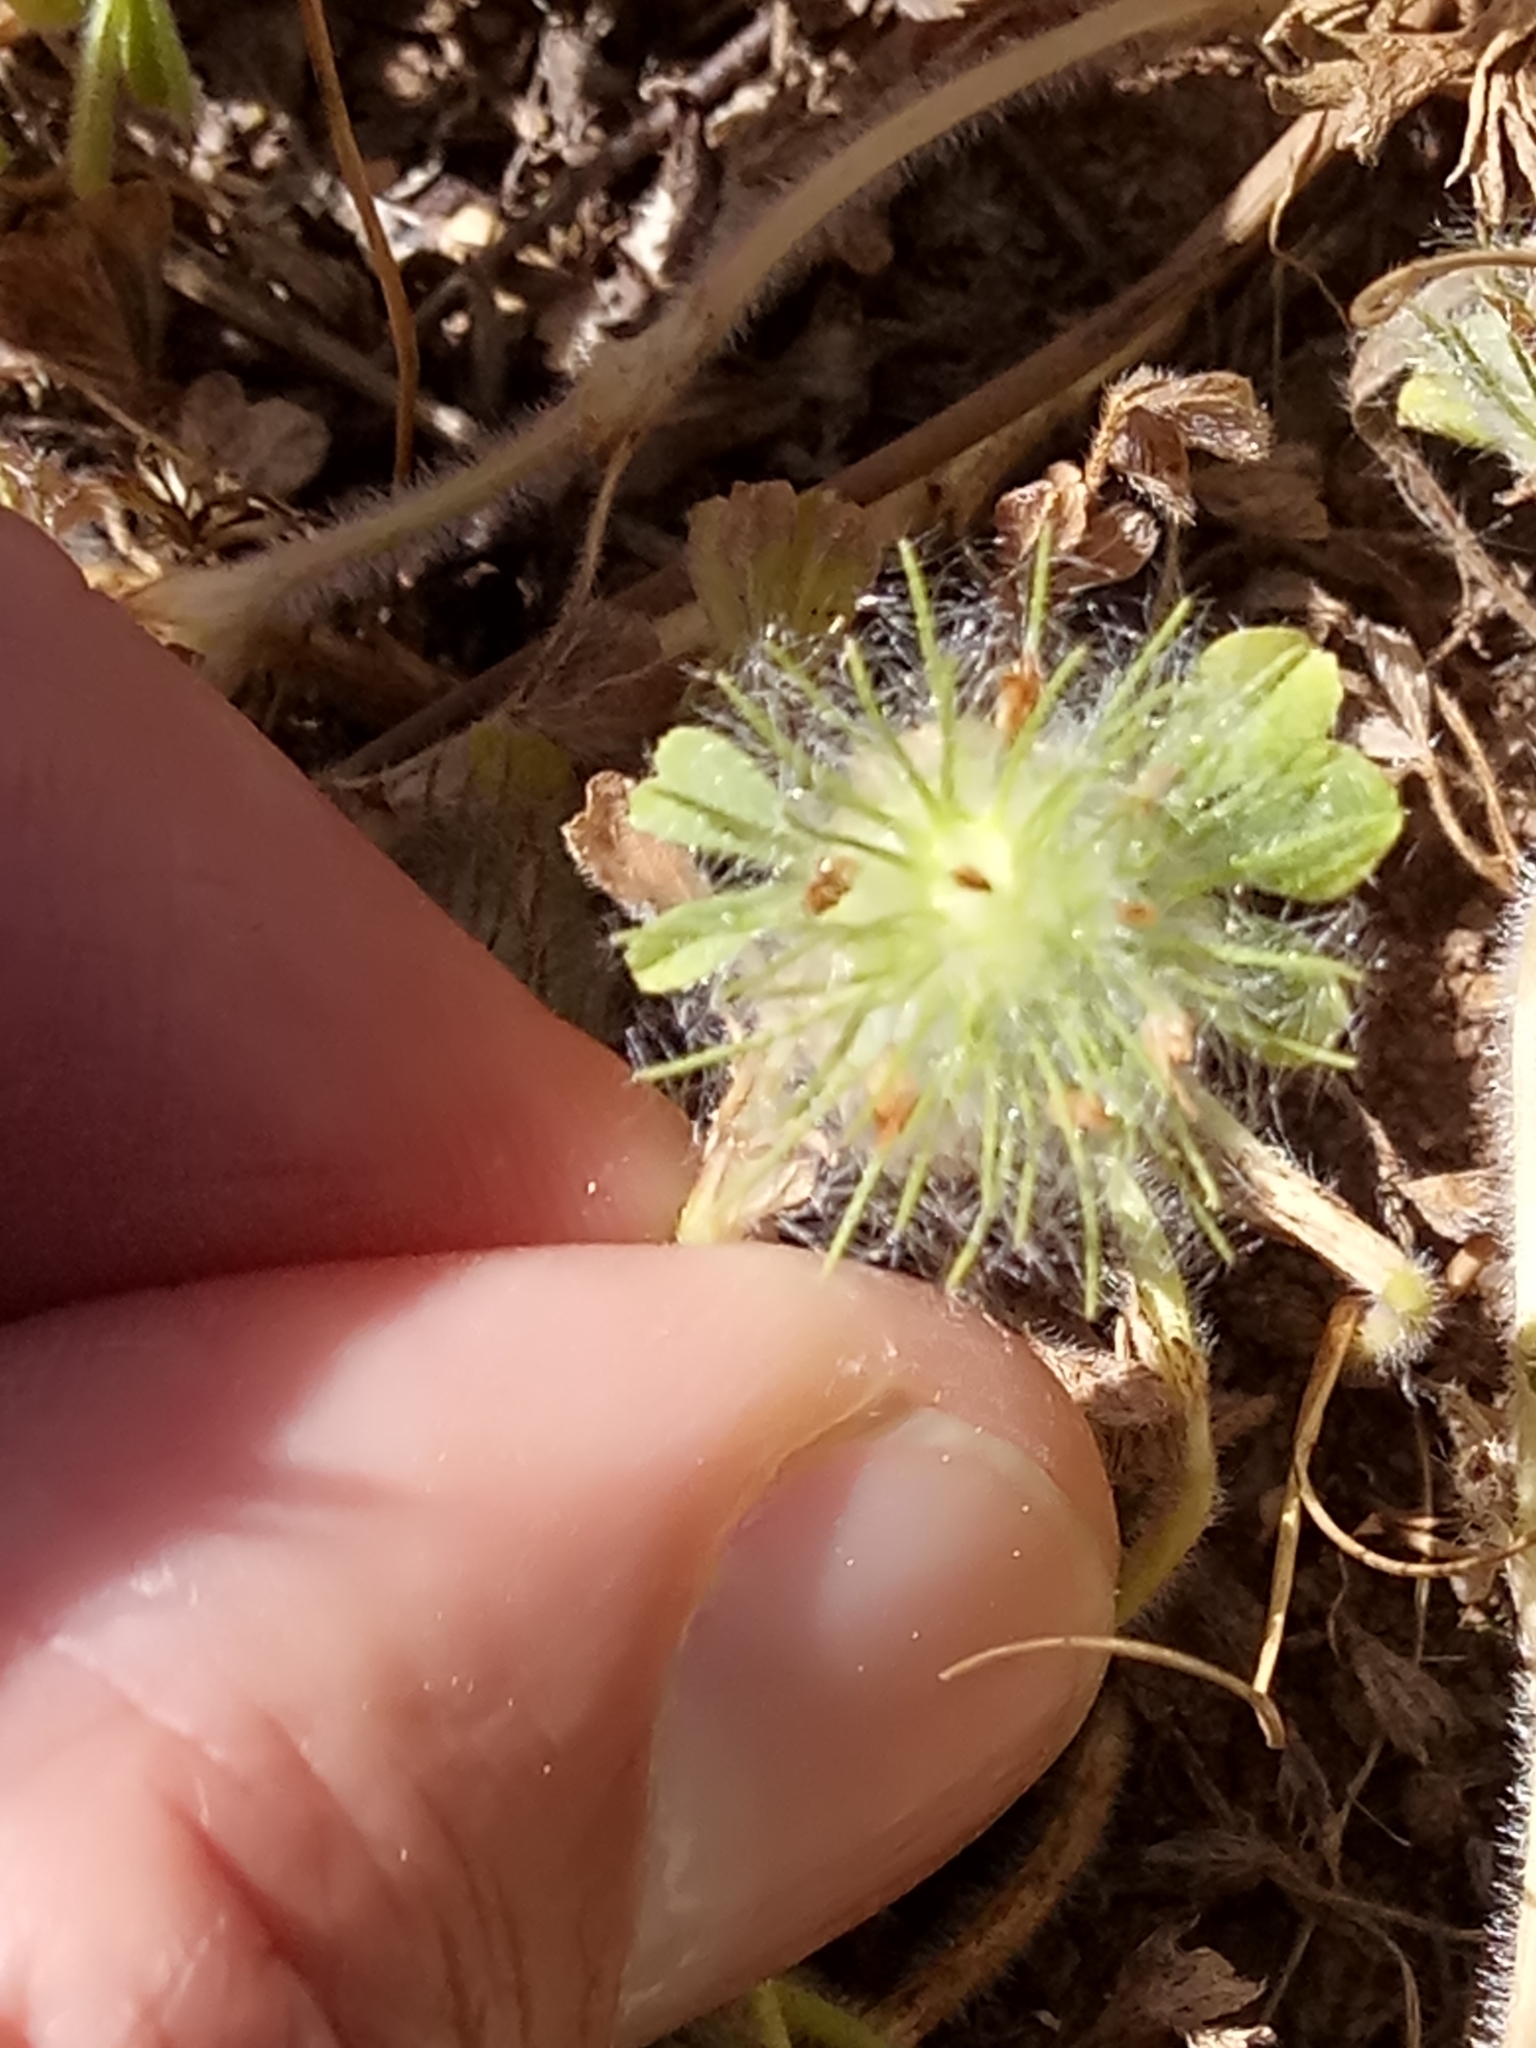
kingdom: Plantae
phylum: Tracheophyta
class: Magnoliopsida
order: Fabales
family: Fabaceae
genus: Trifolium
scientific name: Trifolium cherleri
